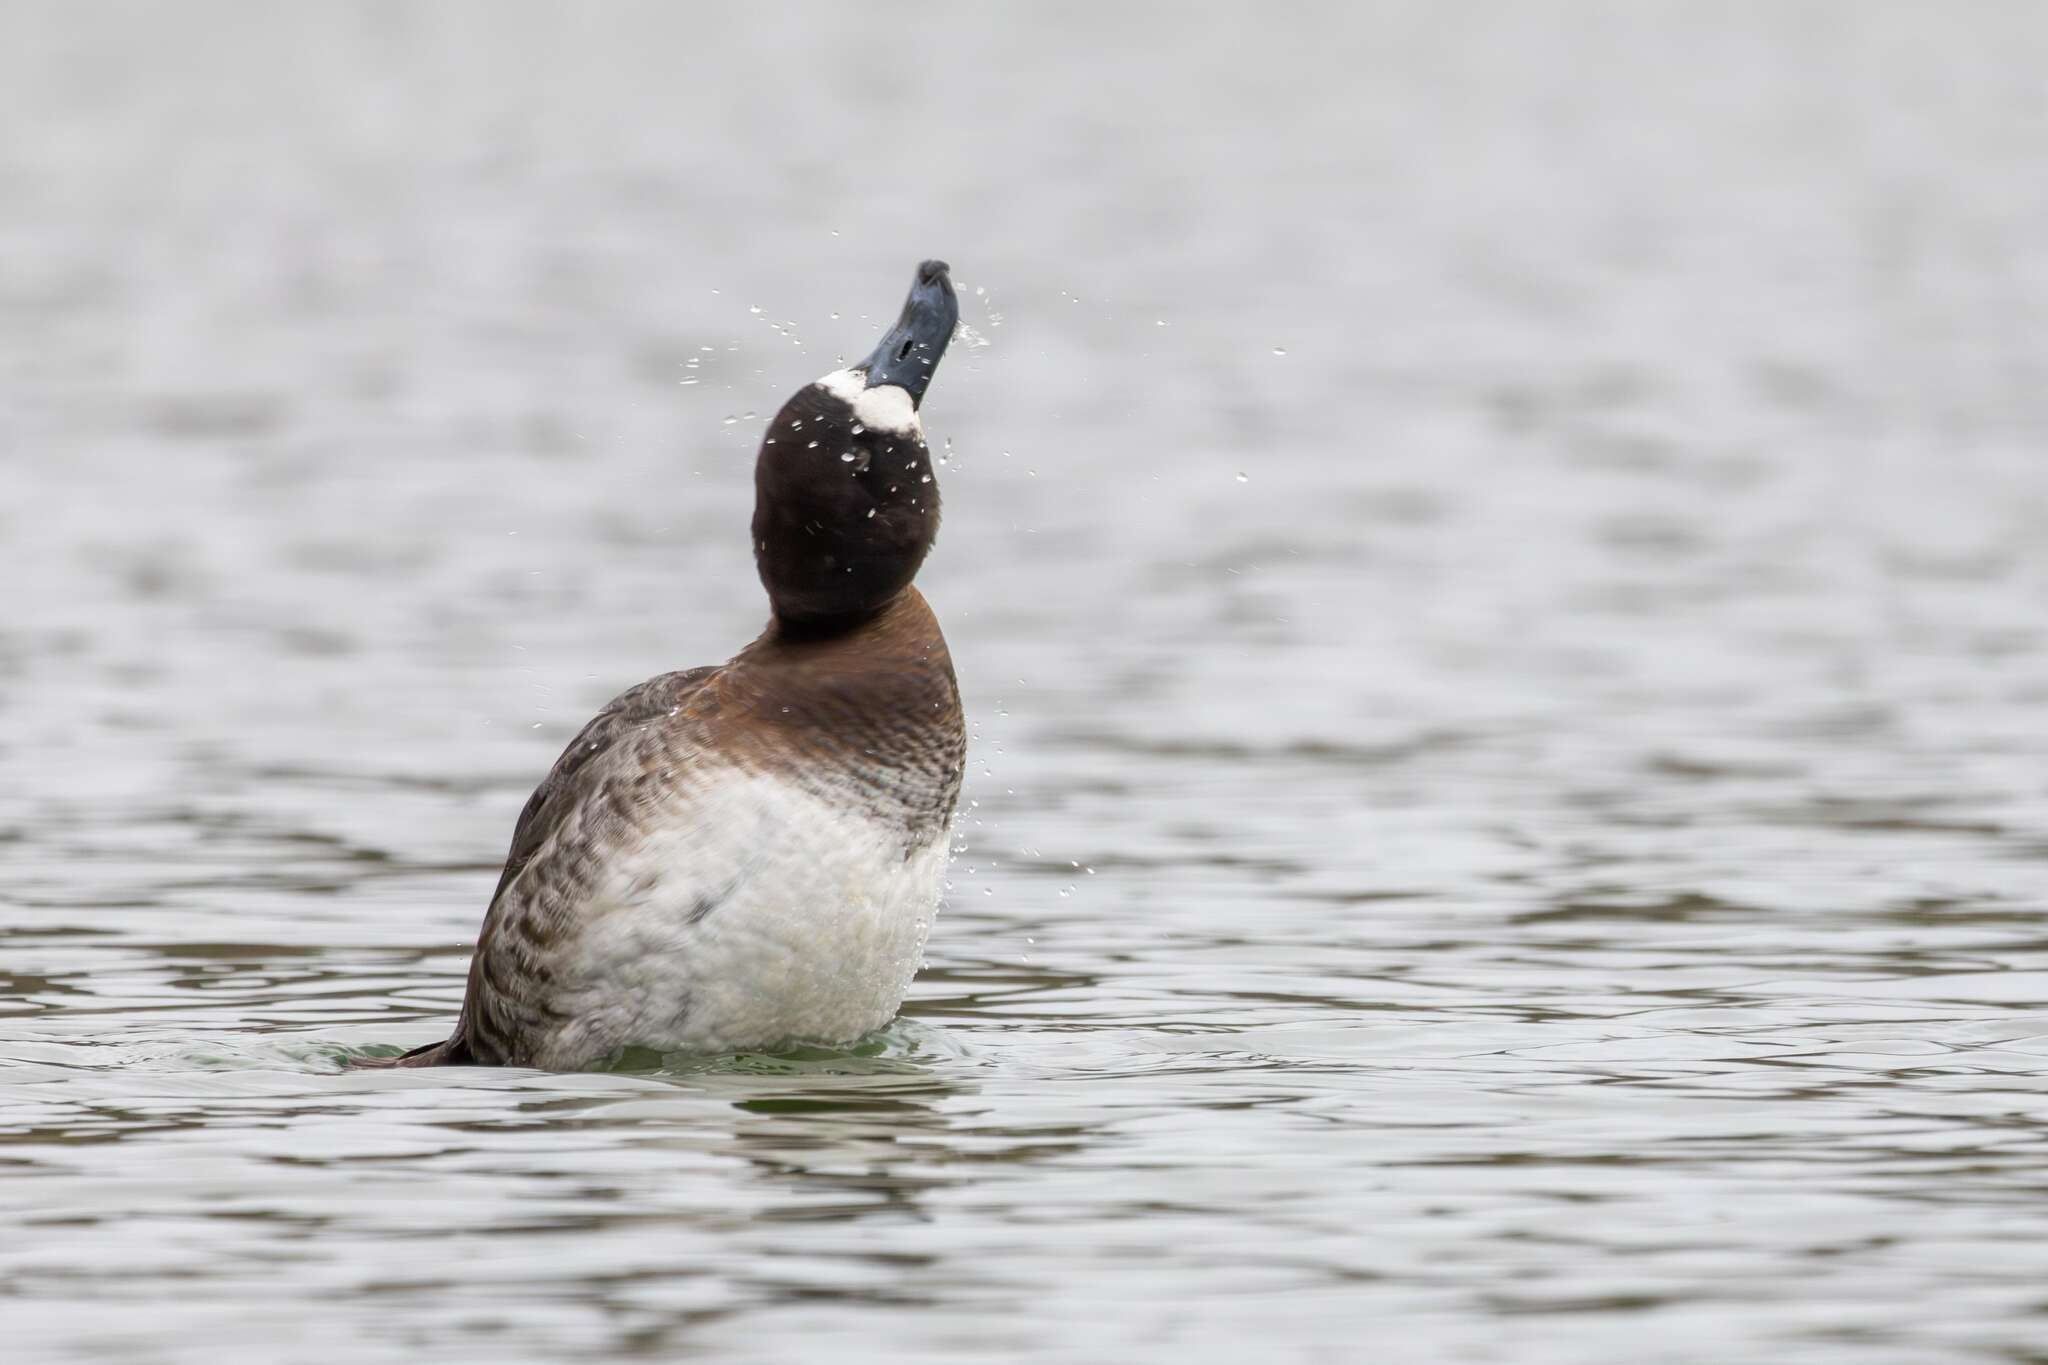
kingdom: Animalia
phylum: Chordata
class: Aves
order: Anseriformes
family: Anatidae
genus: Aythya
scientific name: Aythya marila
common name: Greater scaup
